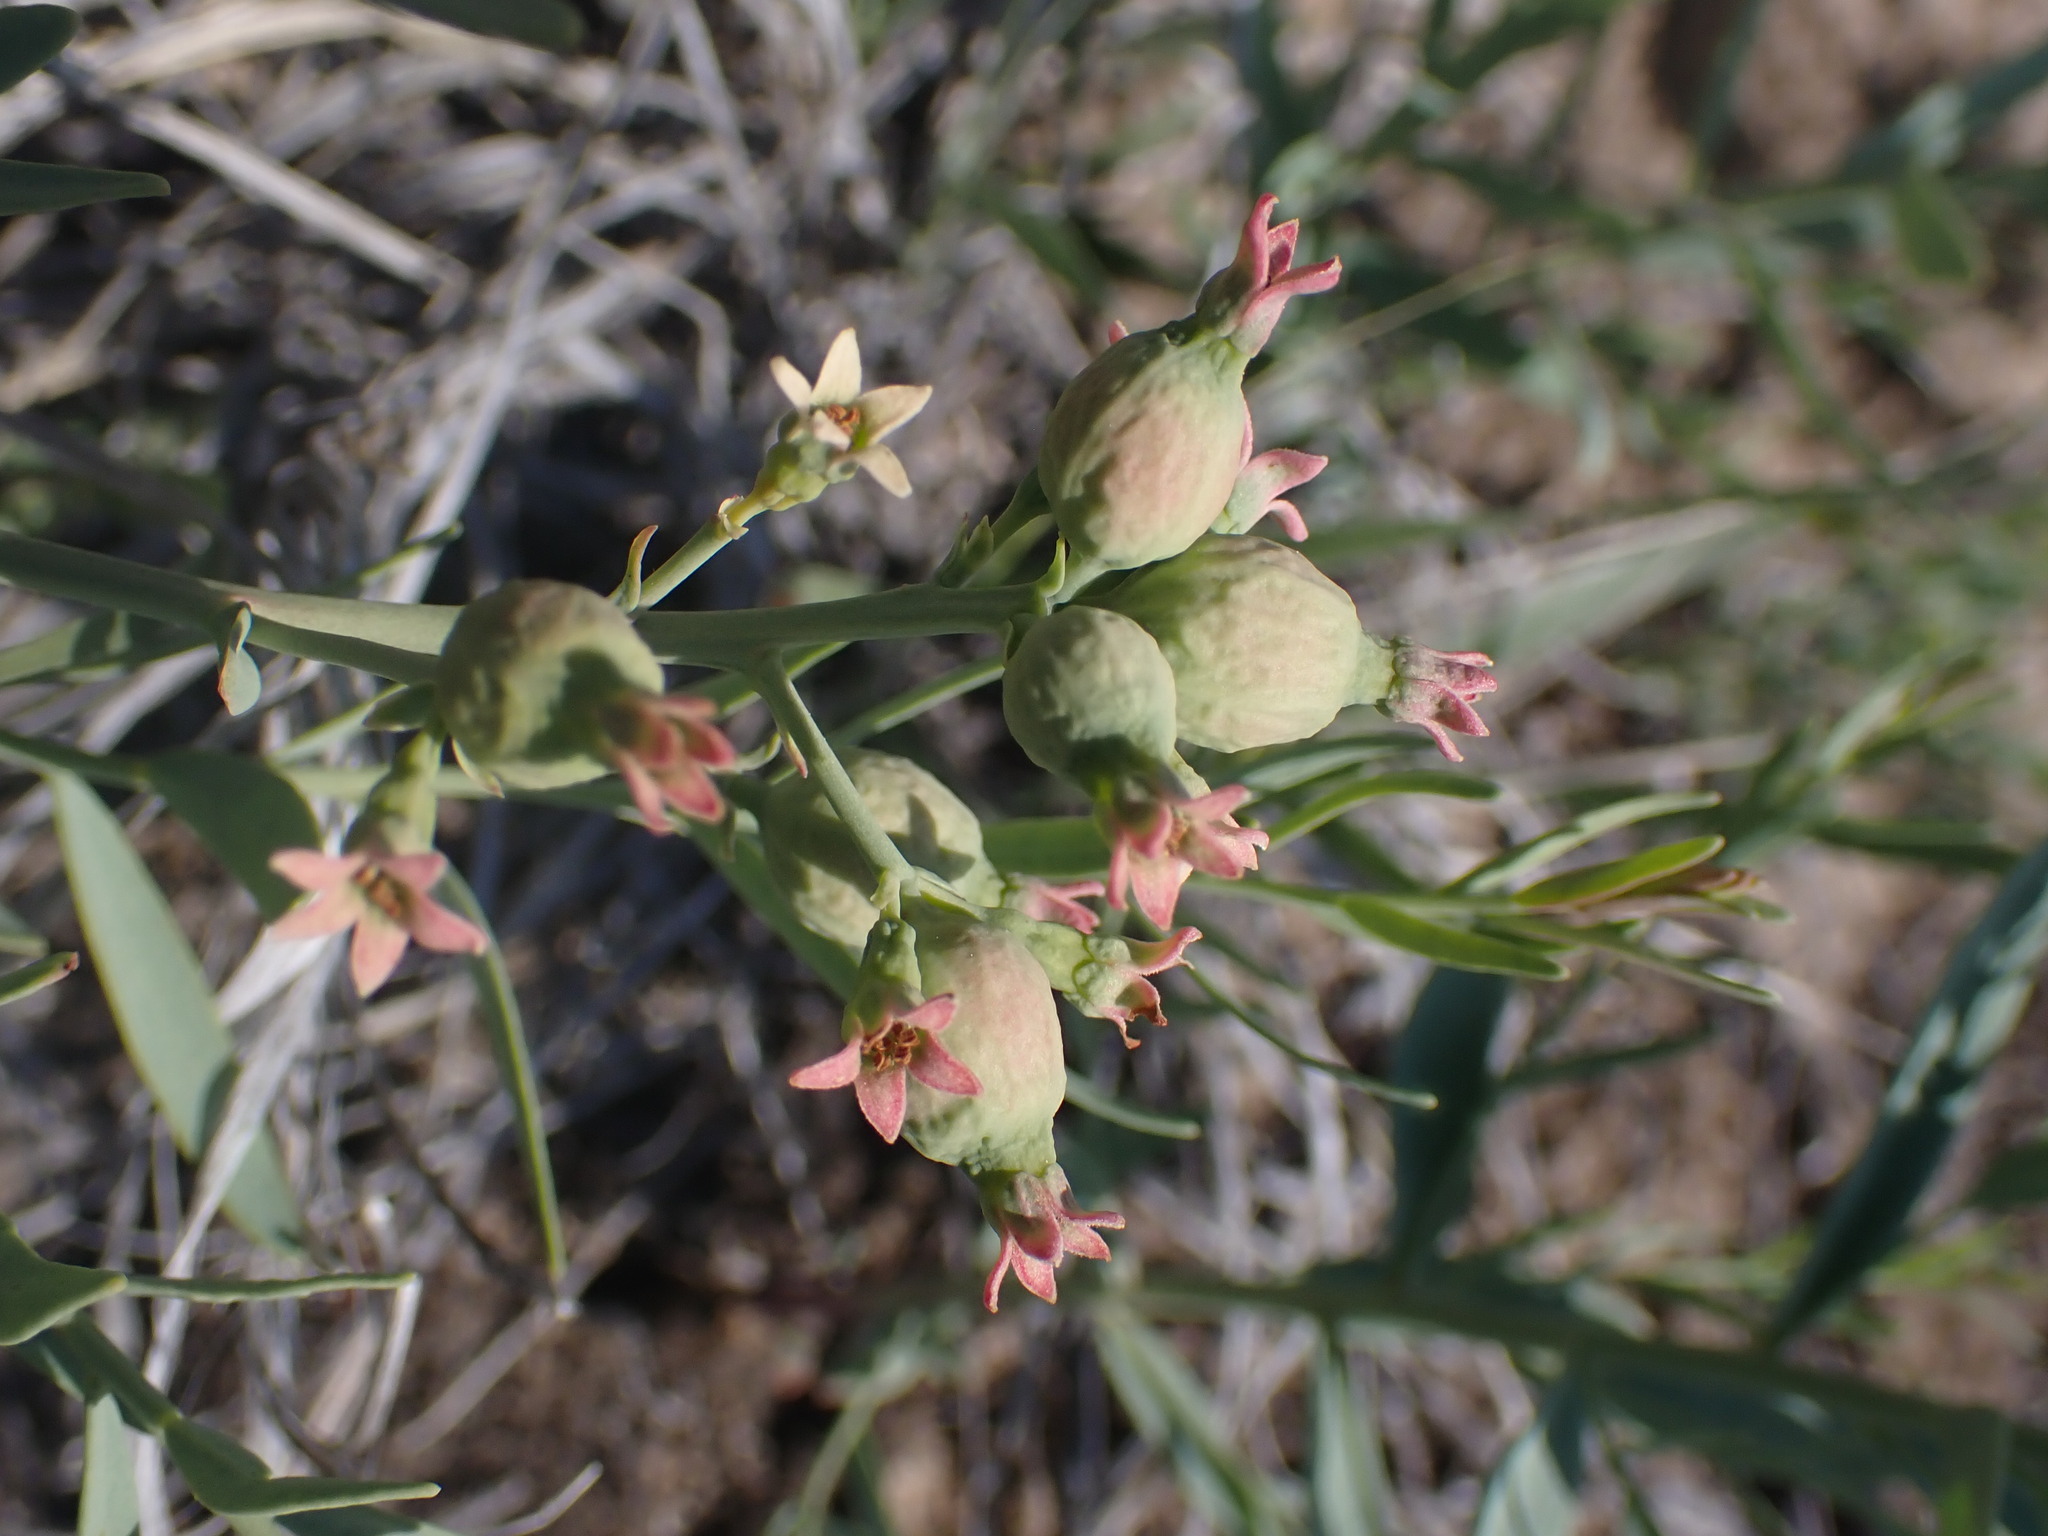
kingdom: Plantae
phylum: Tracheophyta
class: Magnoliopsida
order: Santalales
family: Comandraceae
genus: Comandra
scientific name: Comandra umbellata
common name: Bastard toadflax
